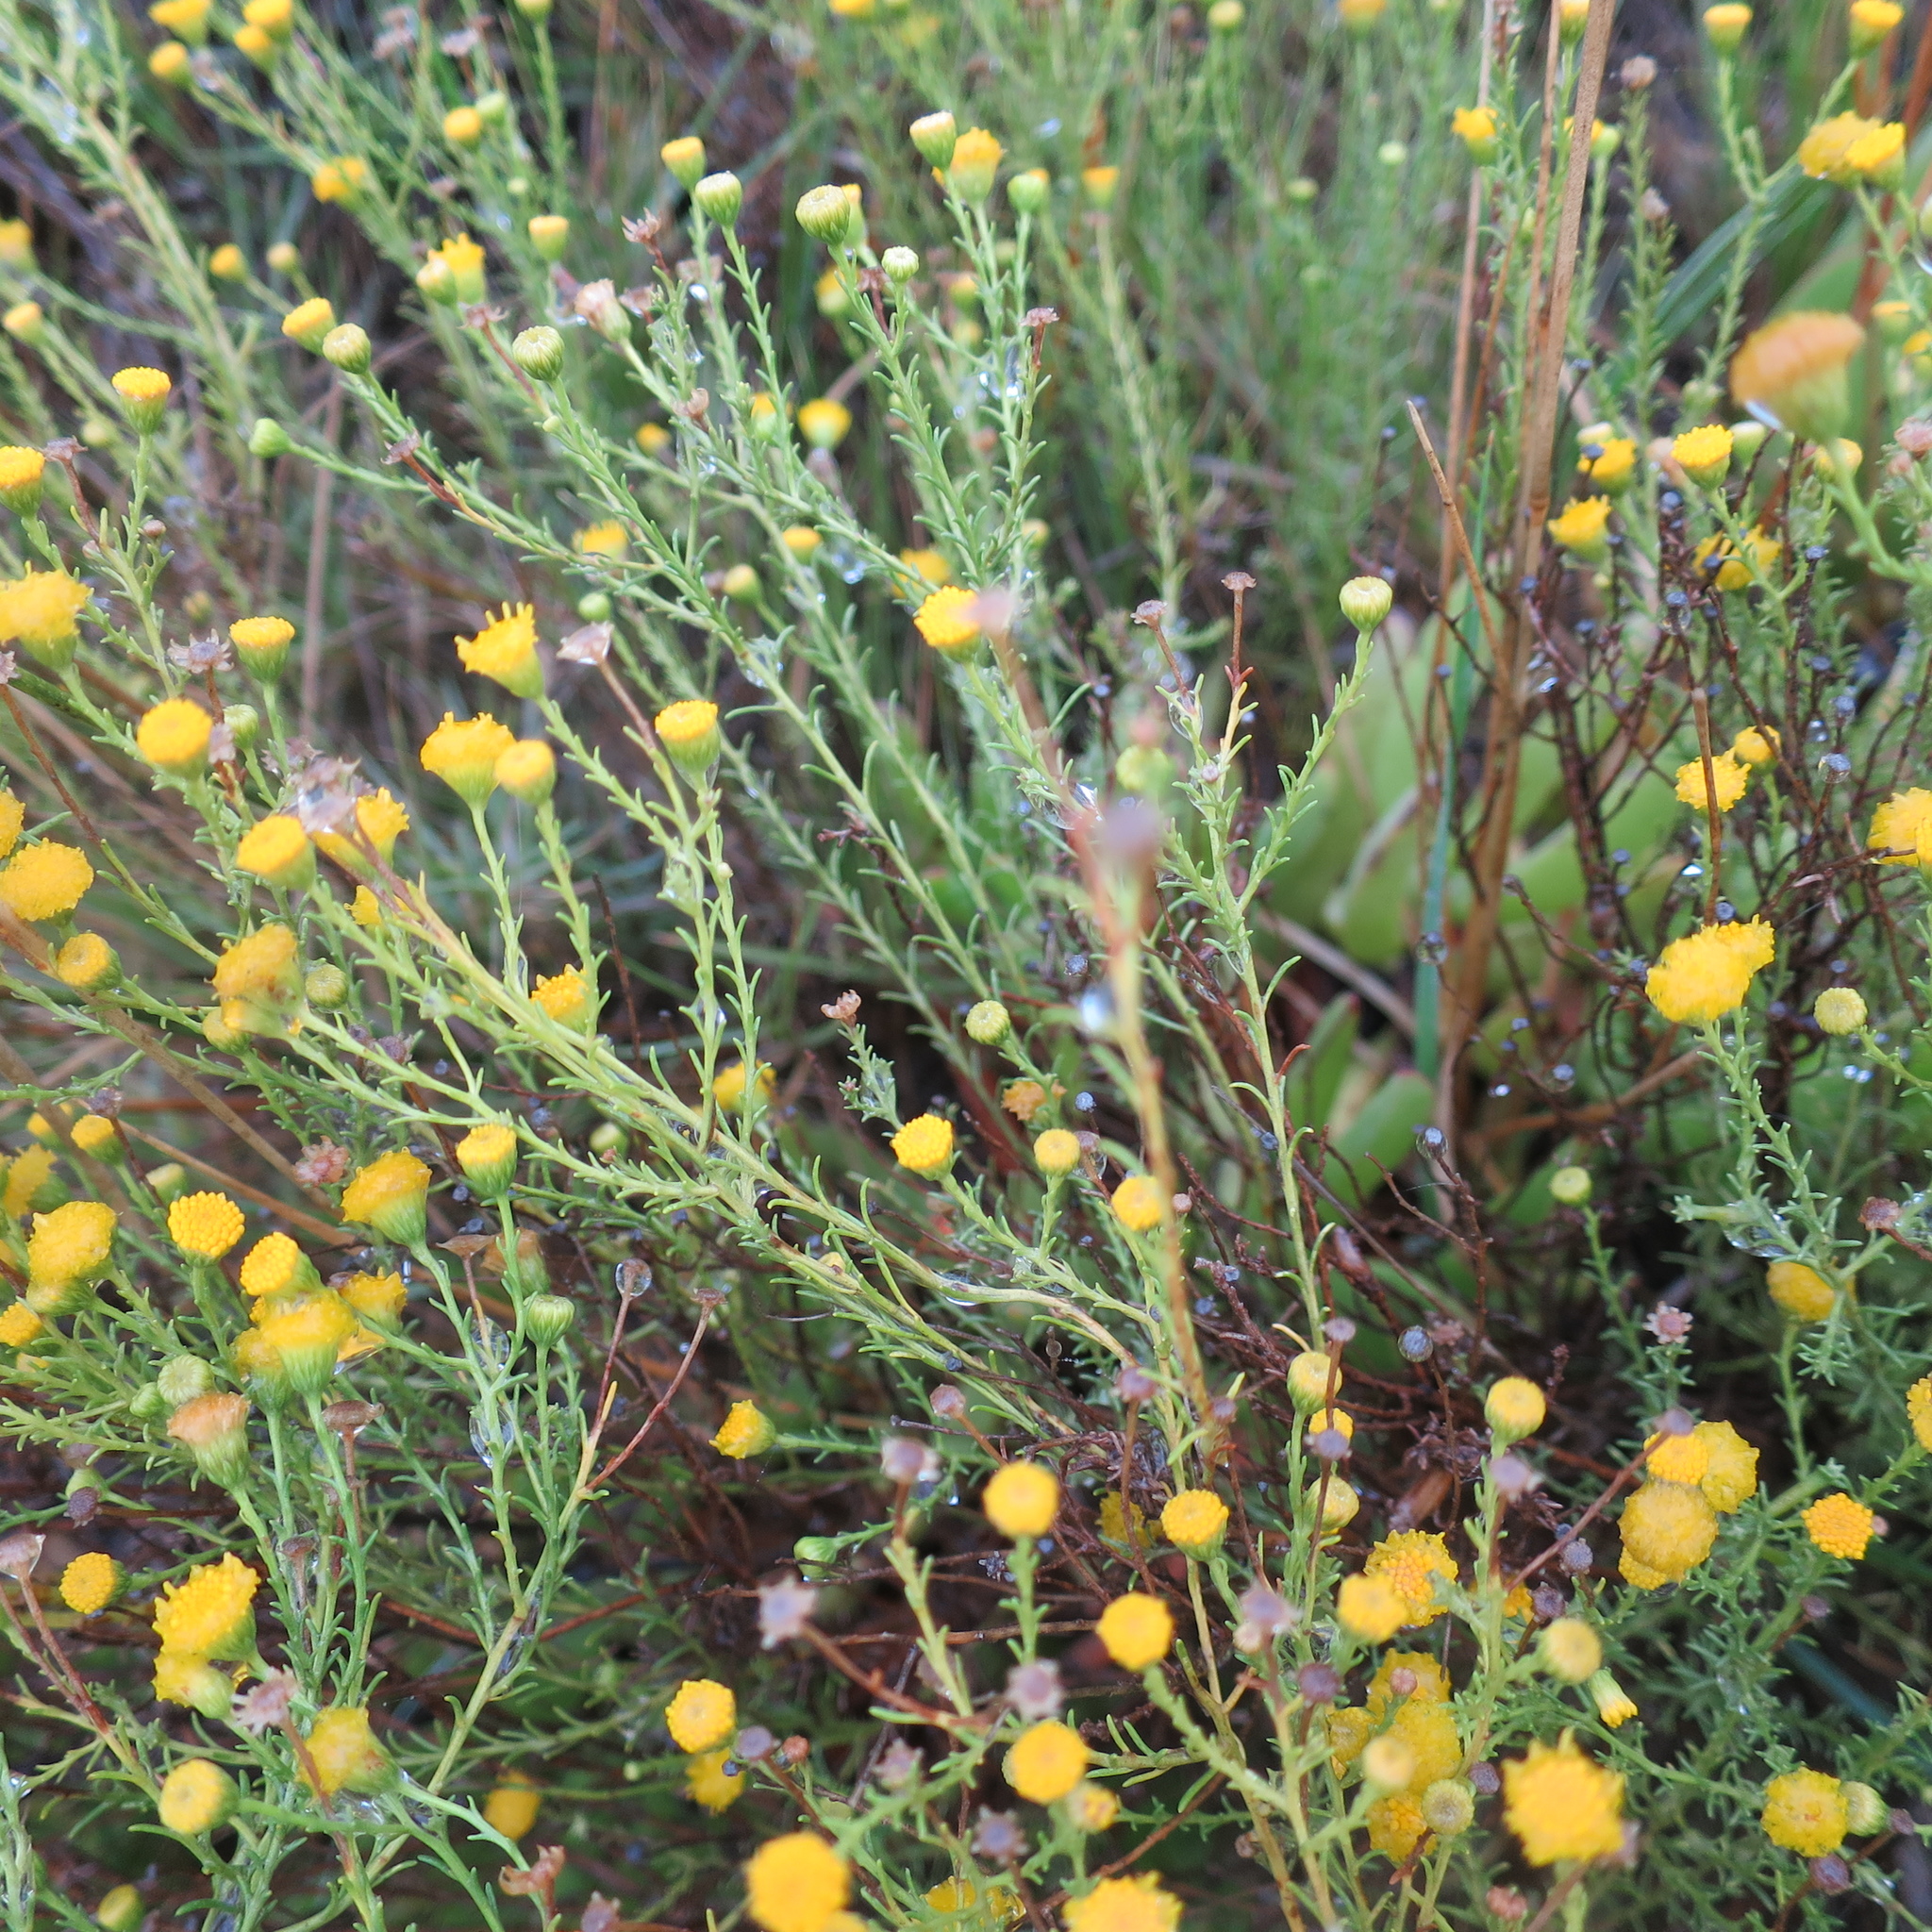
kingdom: Plantae
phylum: Tracheophyta
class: Magnoliopsida
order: Asterales
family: Asteraceae
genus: Chrysocoma
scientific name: Chrysocoma ciliata
